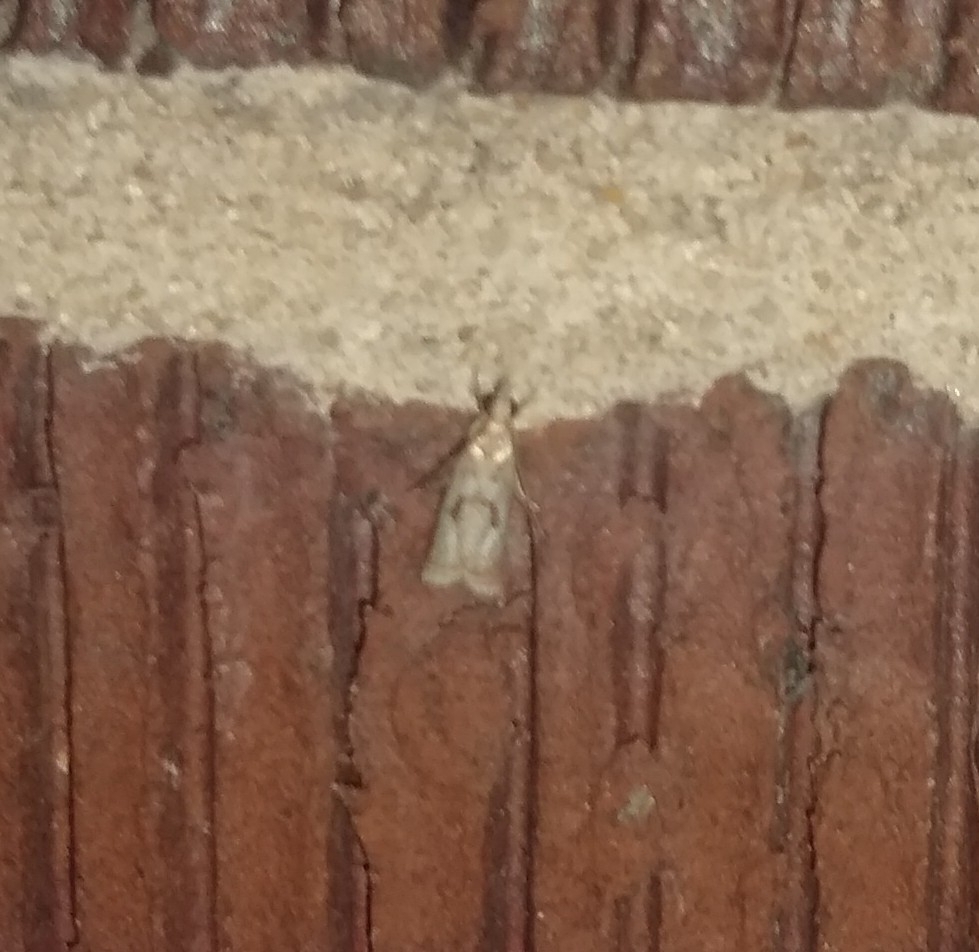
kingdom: Animalia
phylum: Arthropoda
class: Insecta
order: Lepidoptera
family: Crambidae
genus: Microcrambus
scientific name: Microcrambus elegans
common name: Elegant grass-veneer
